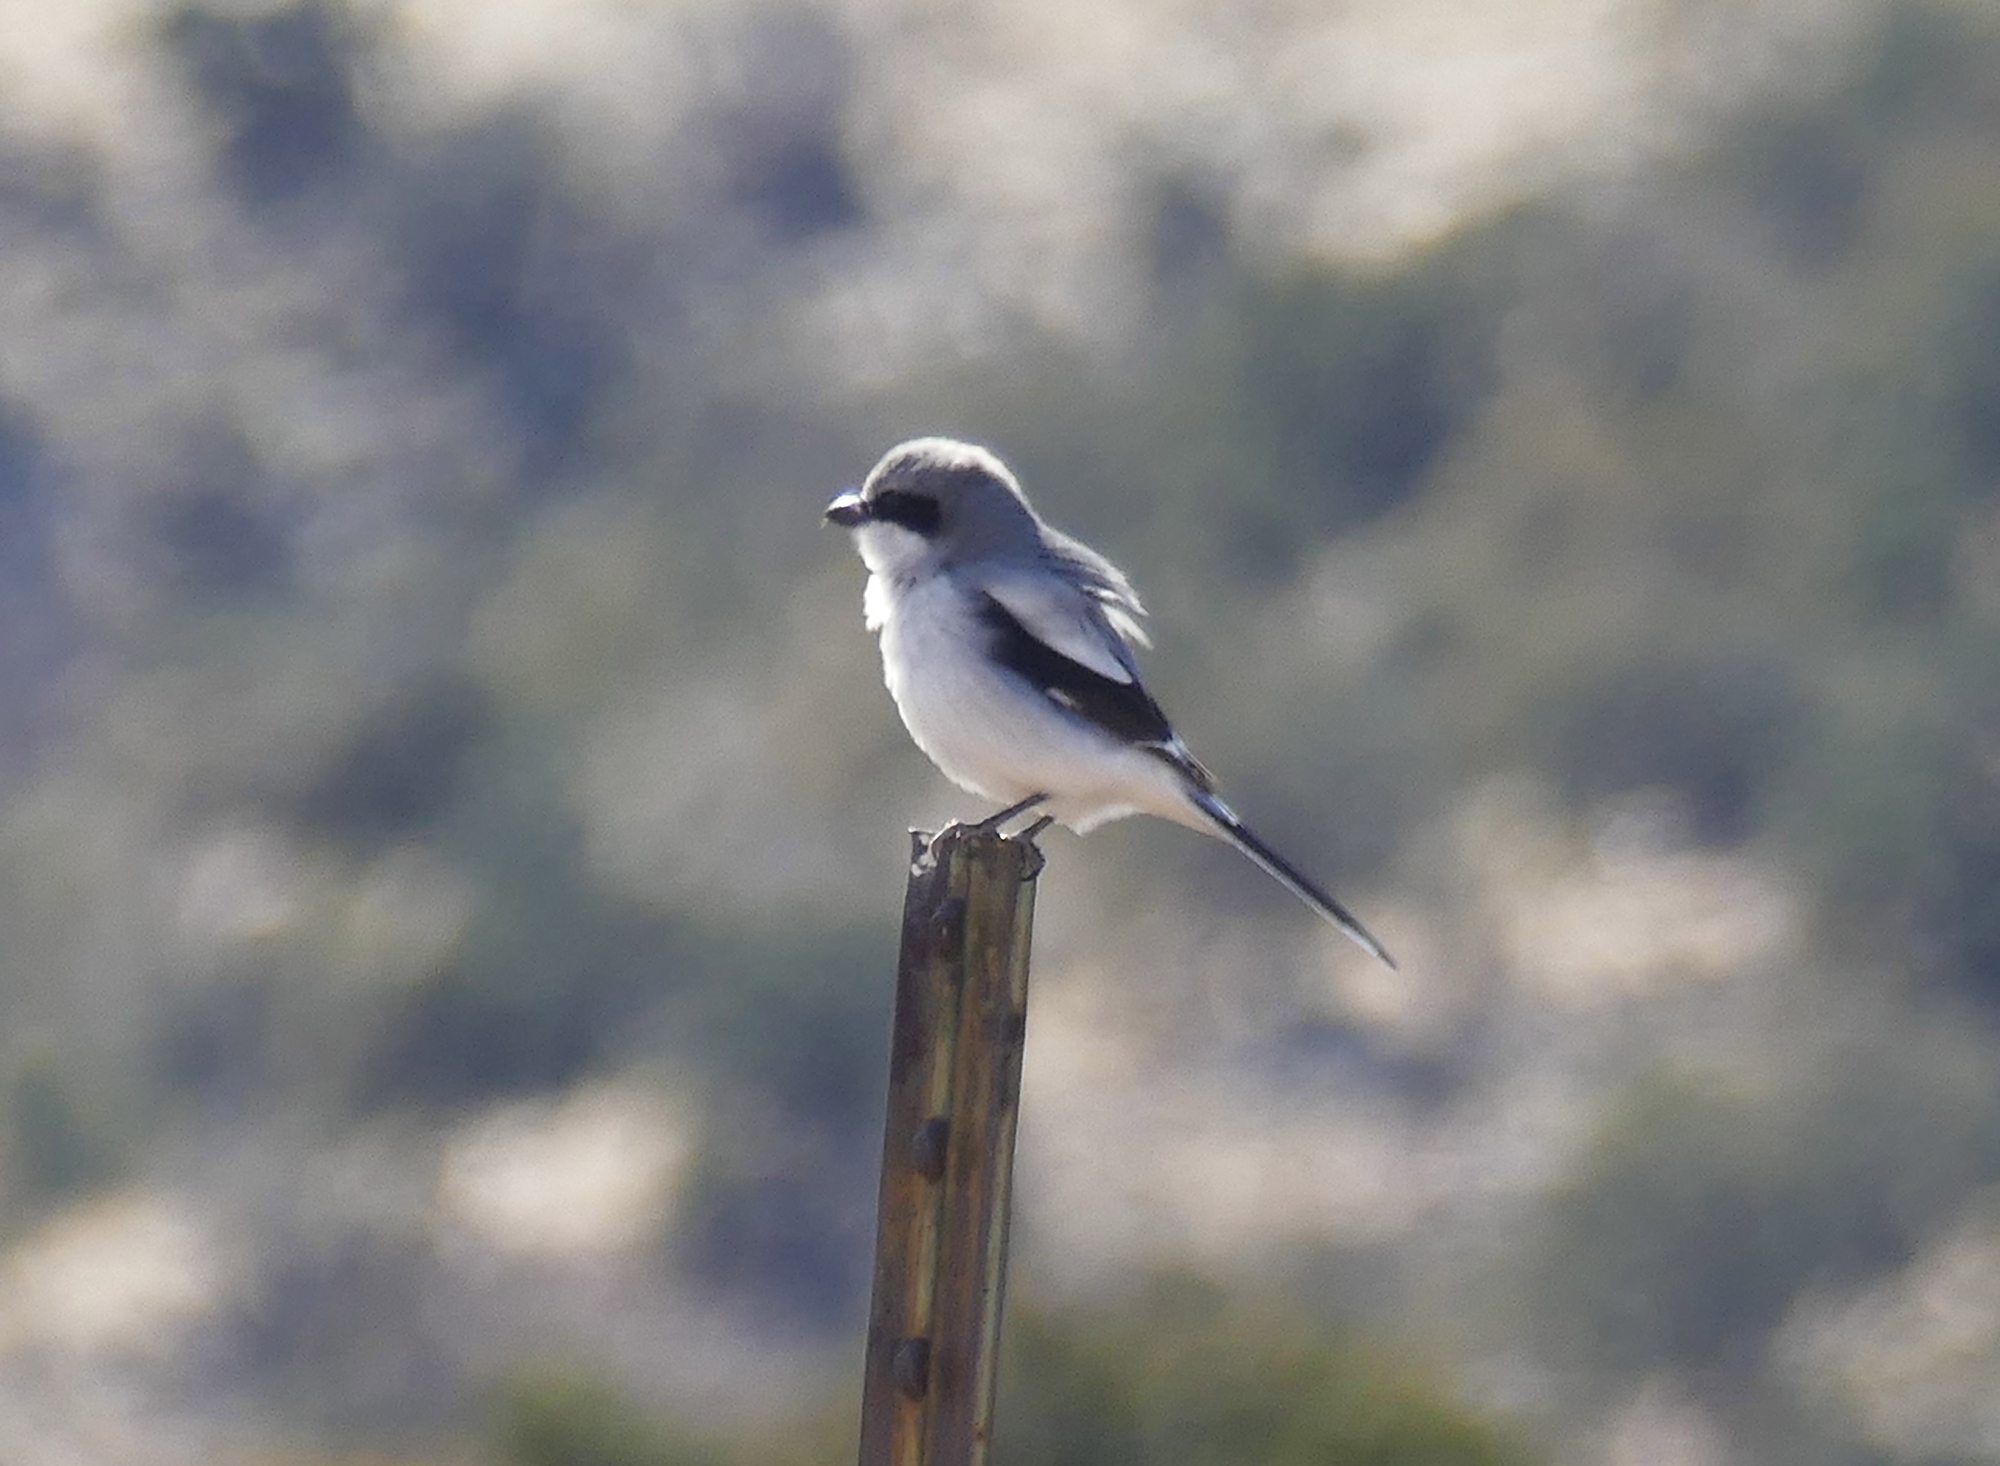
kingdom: Animalia
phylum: Chordata
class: Aves
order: Passeriformes
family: Laniidae
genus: Lanius
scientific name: Lanius ludovicianus
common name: Loggerhead shrike
